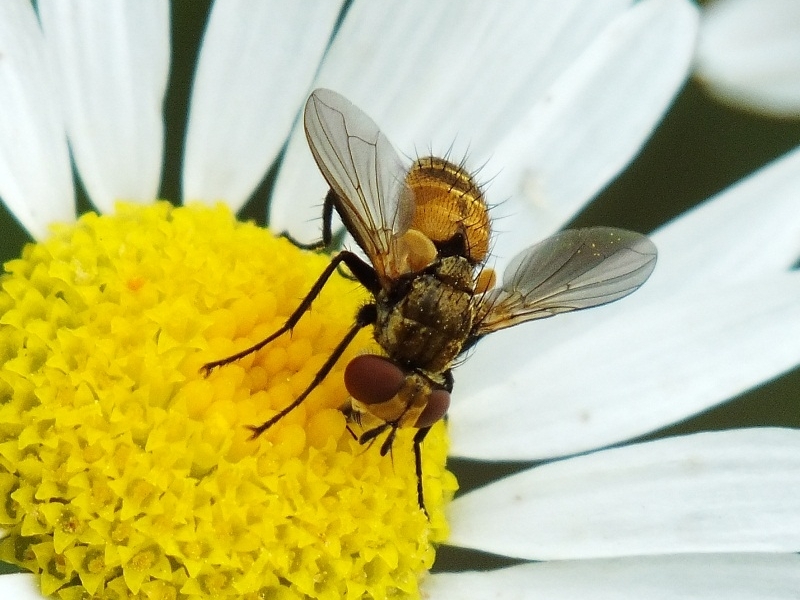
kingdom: Animalia
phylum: Arthropoda
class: Insecta
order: Diptera
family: Tachinidae
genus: Eliozeta
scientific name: Eliozeta pellucens
